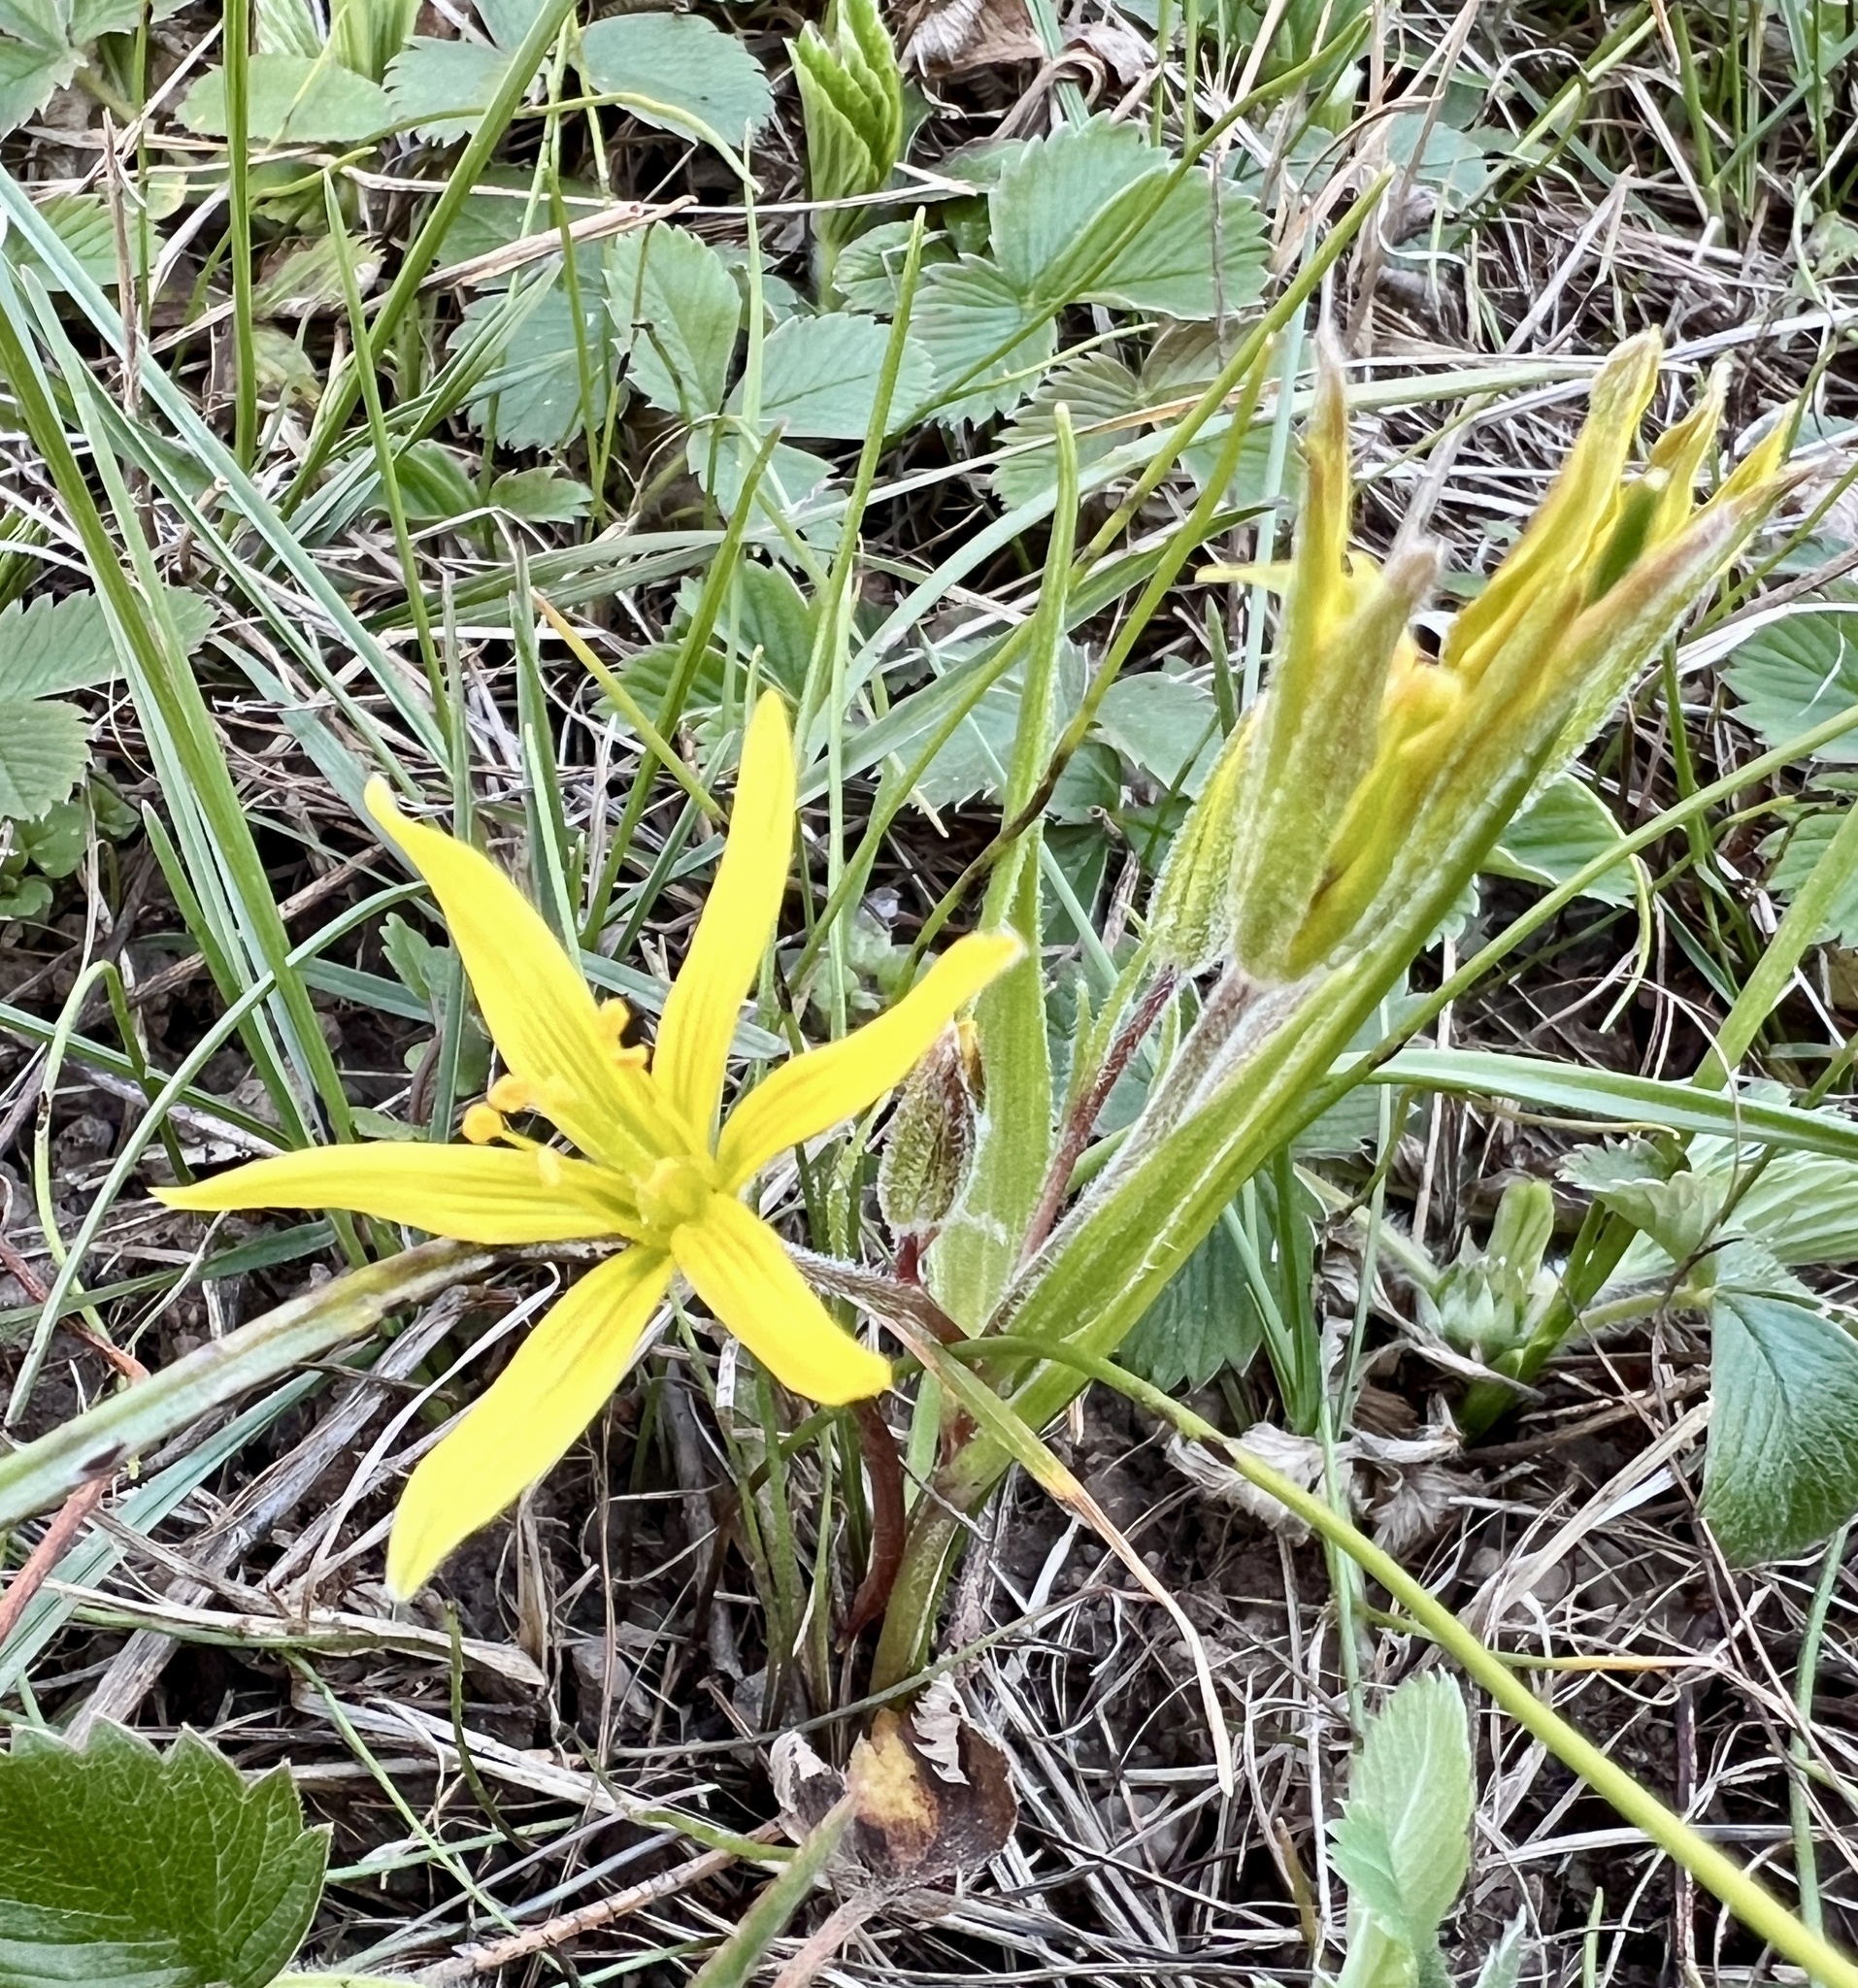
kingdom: Plantae
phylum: Tracheophyta
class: Liliopsida
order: Liliales
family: Liliaceae
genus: Gagea
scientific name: Gagea villosa
